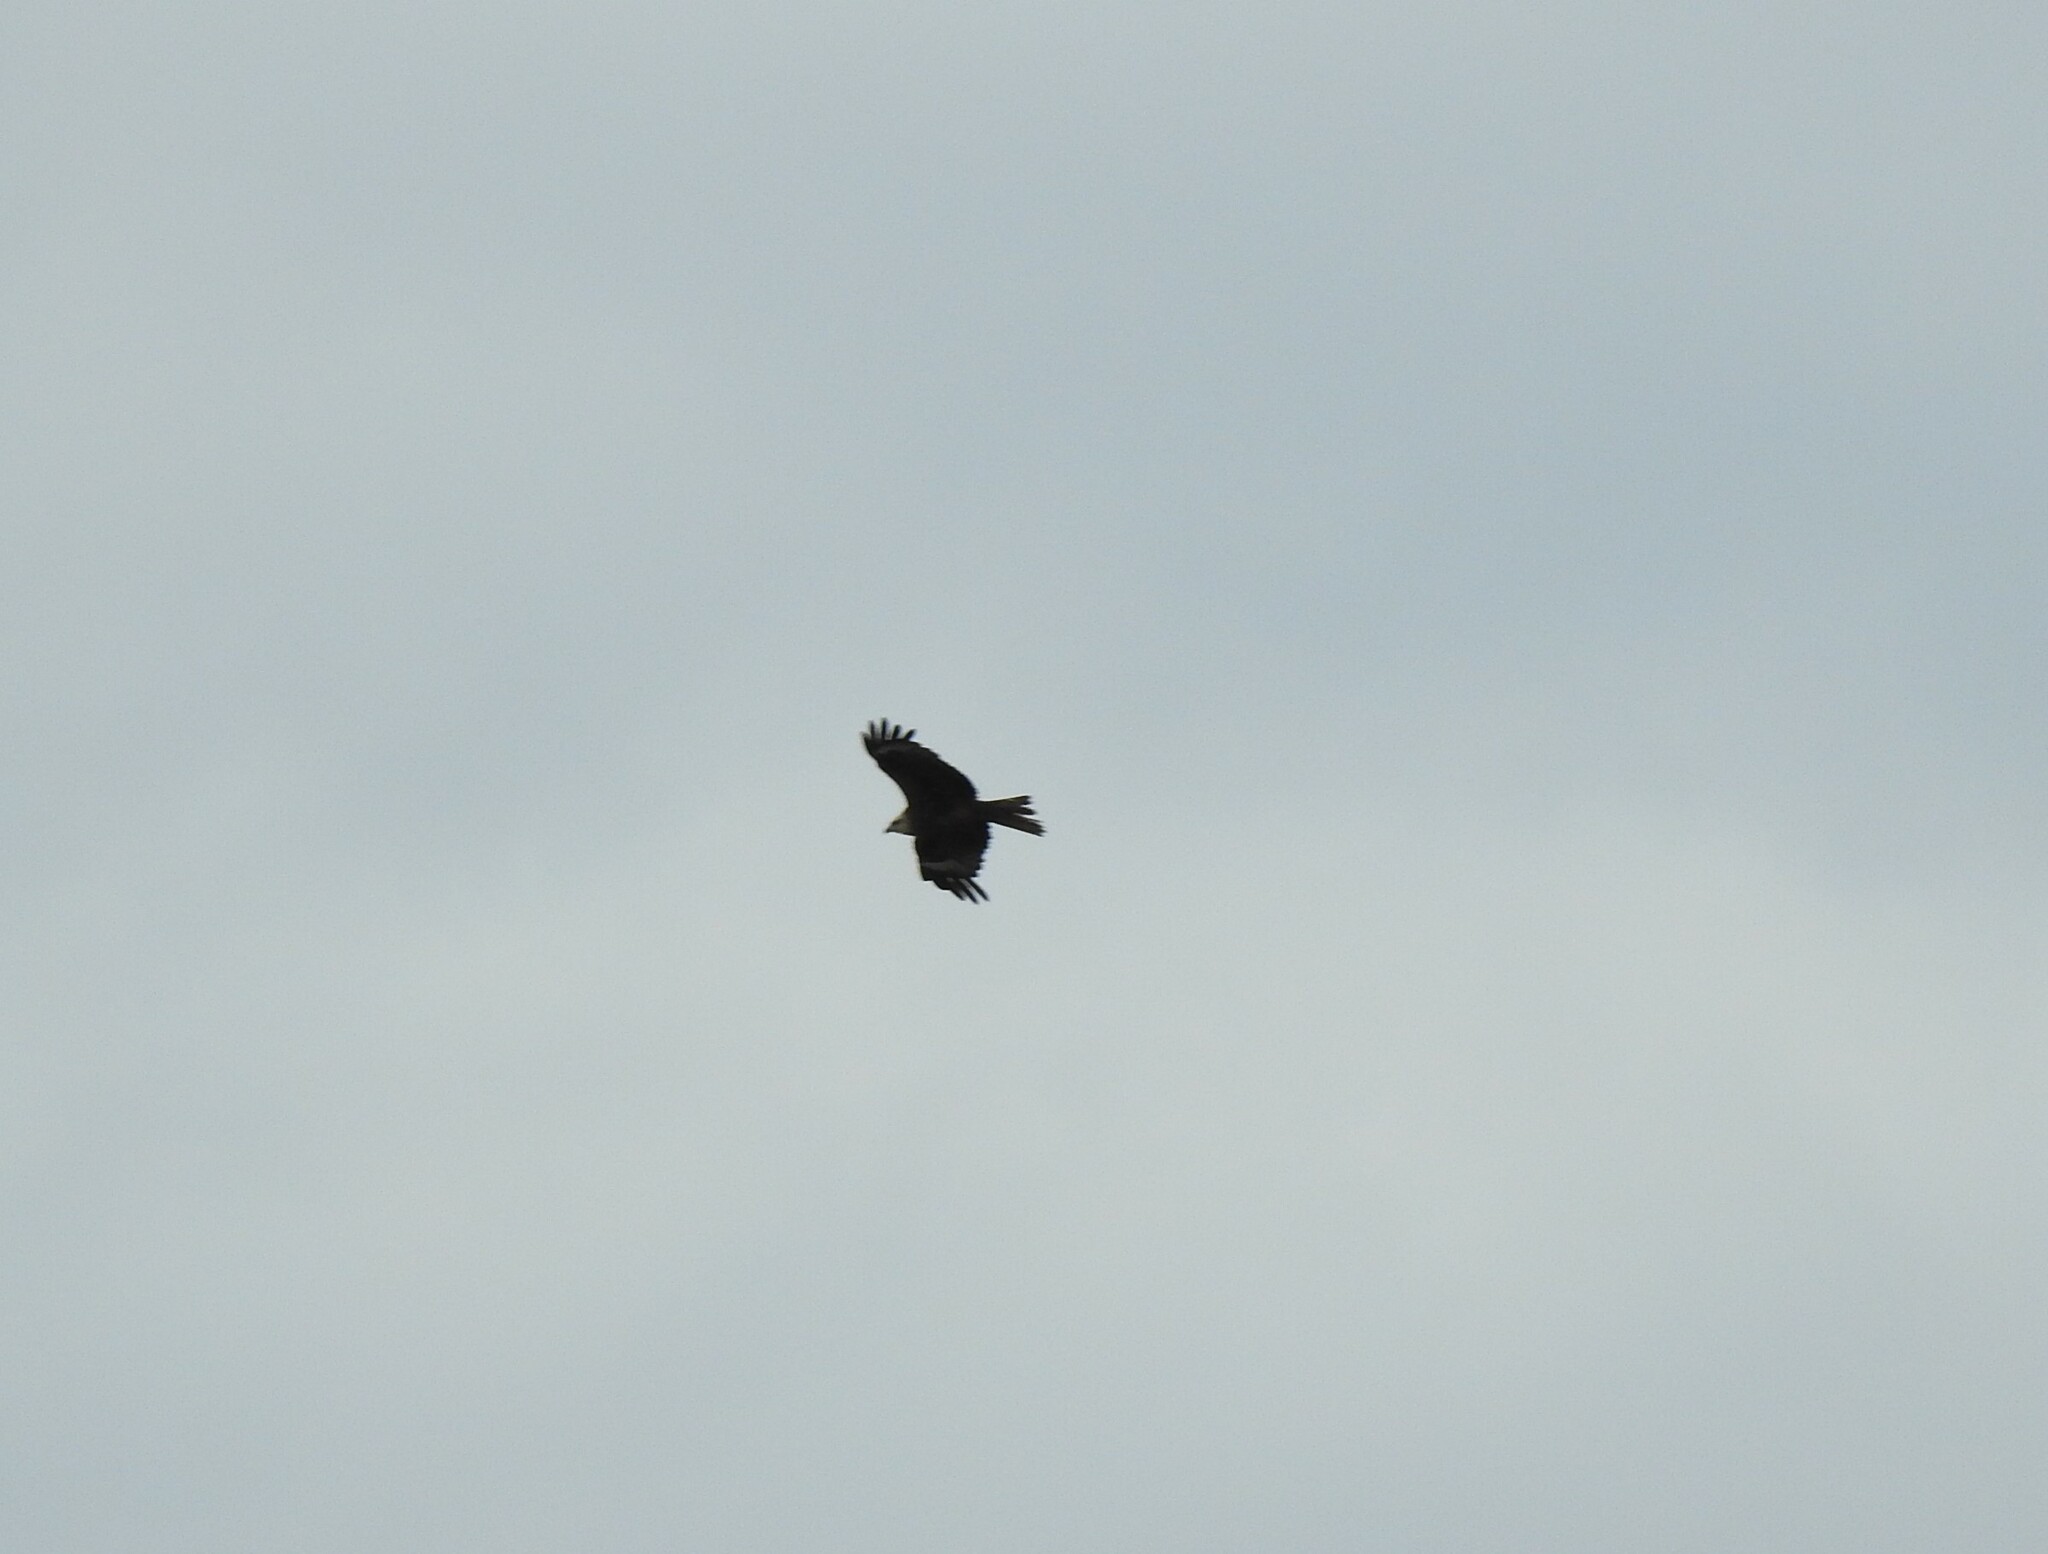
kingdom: Animalia
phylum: Chordata
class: Aves
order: Accipitriformes
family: Accipitridae
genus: Milvus
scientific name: Milvus migrans
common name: Black kite
